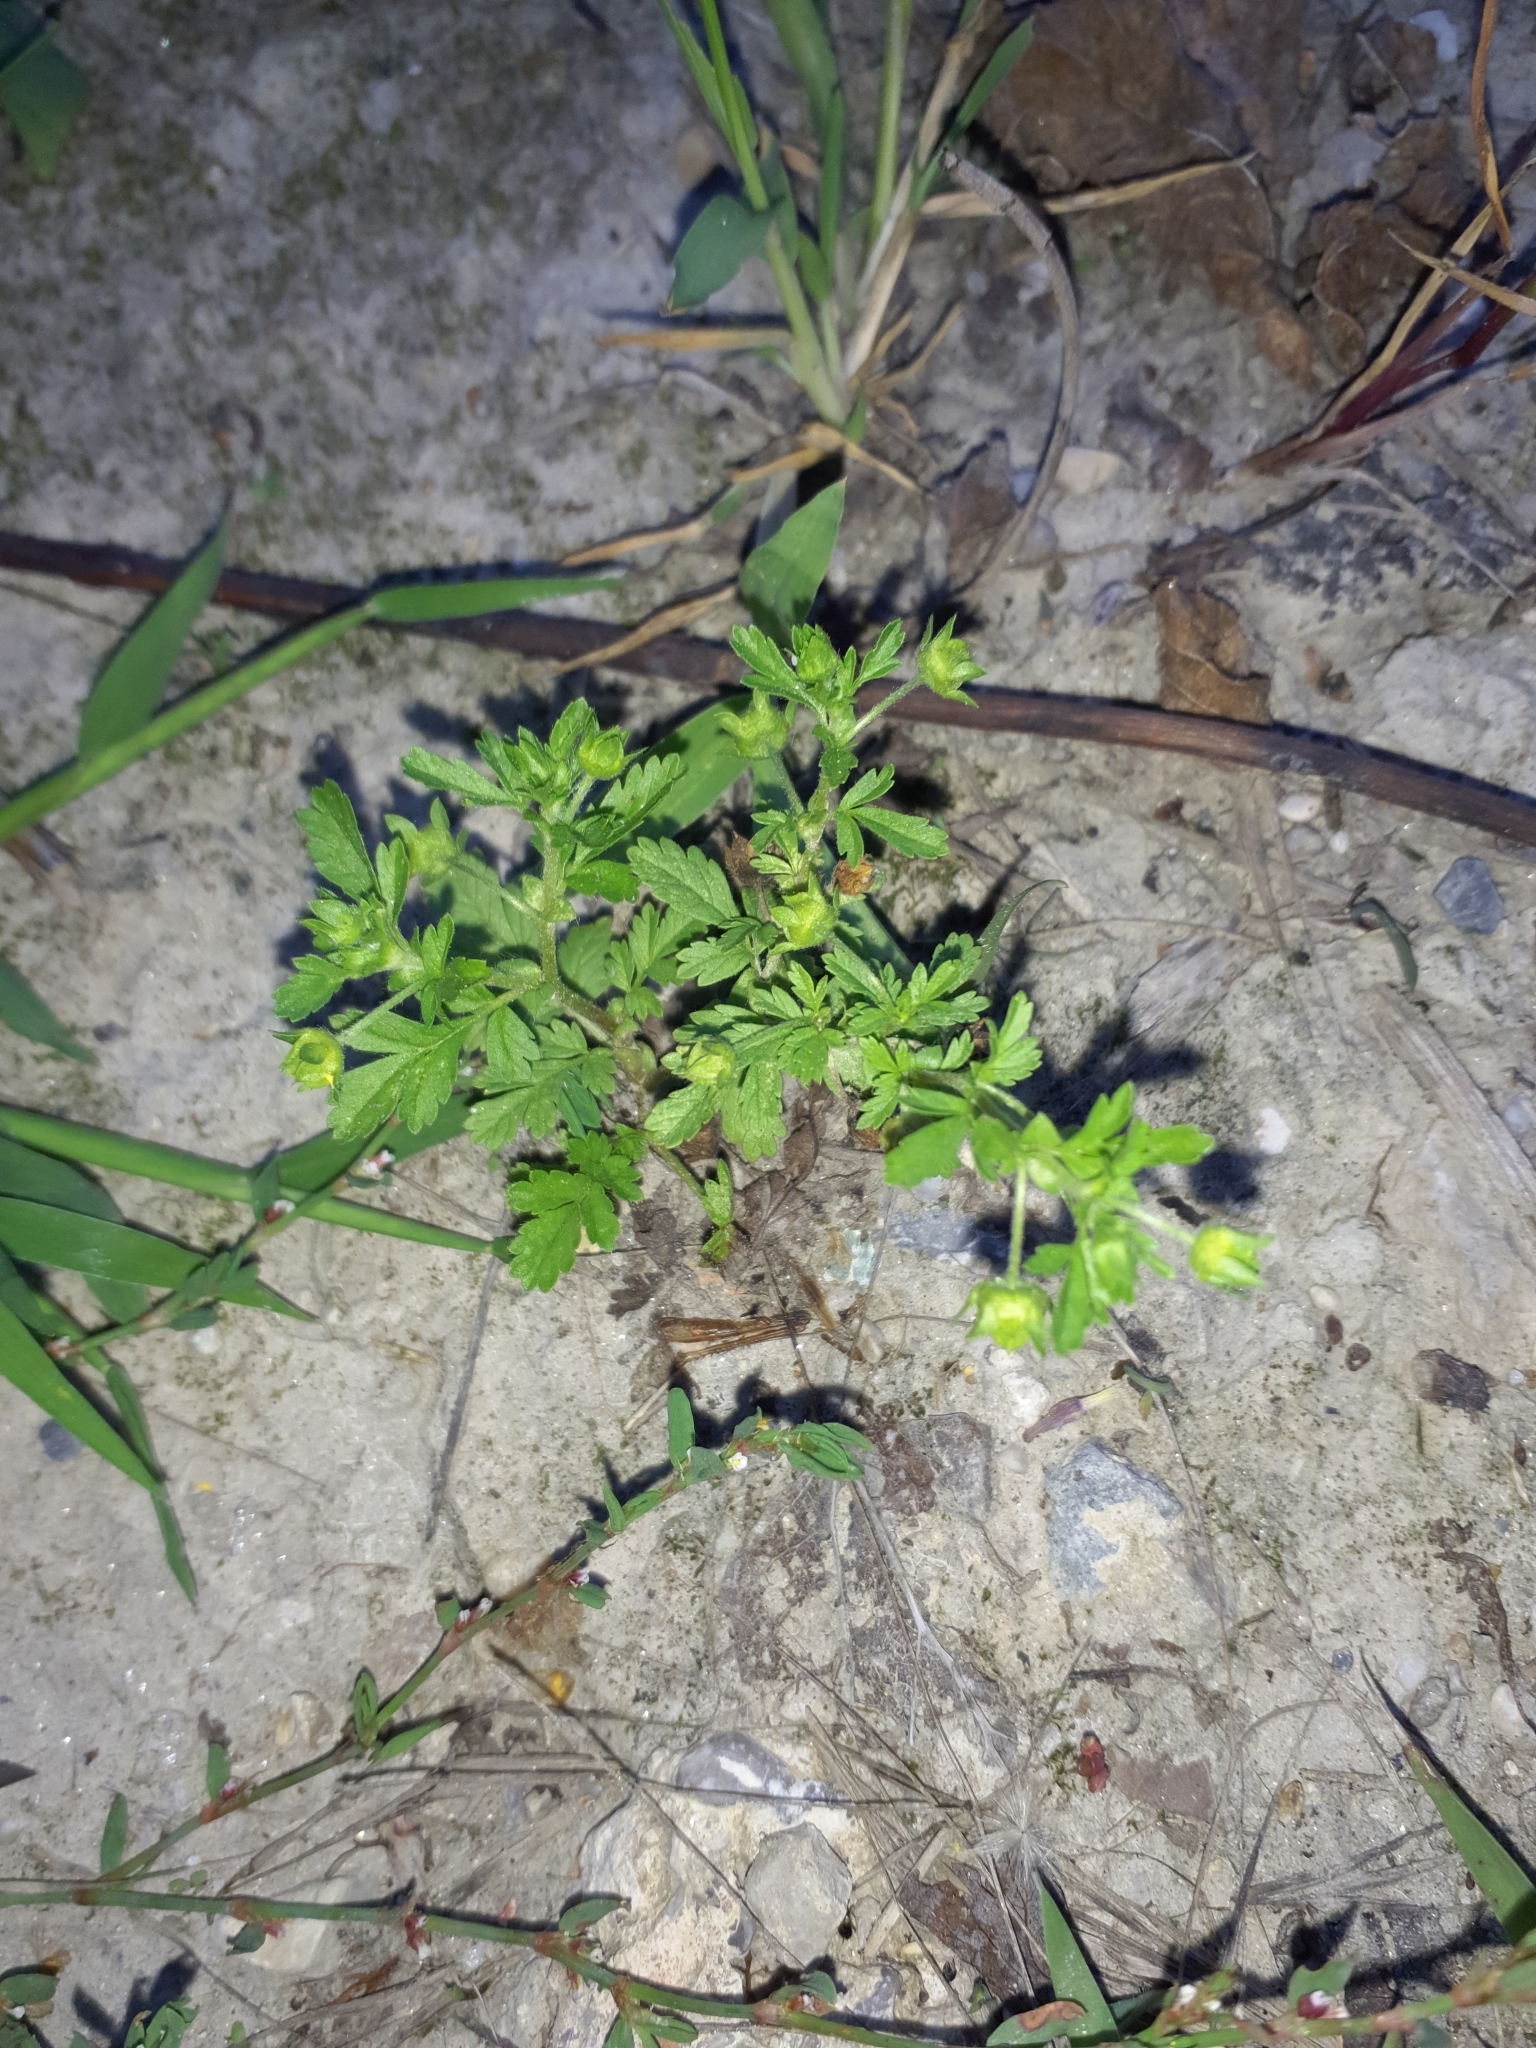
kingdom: Plantae
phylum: Tracheophyta
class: Magnoliopsida
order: Rosales
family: Rosaceae
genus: Potentilla
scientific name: Potentilla supina
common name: Prostrate cinquefoil
